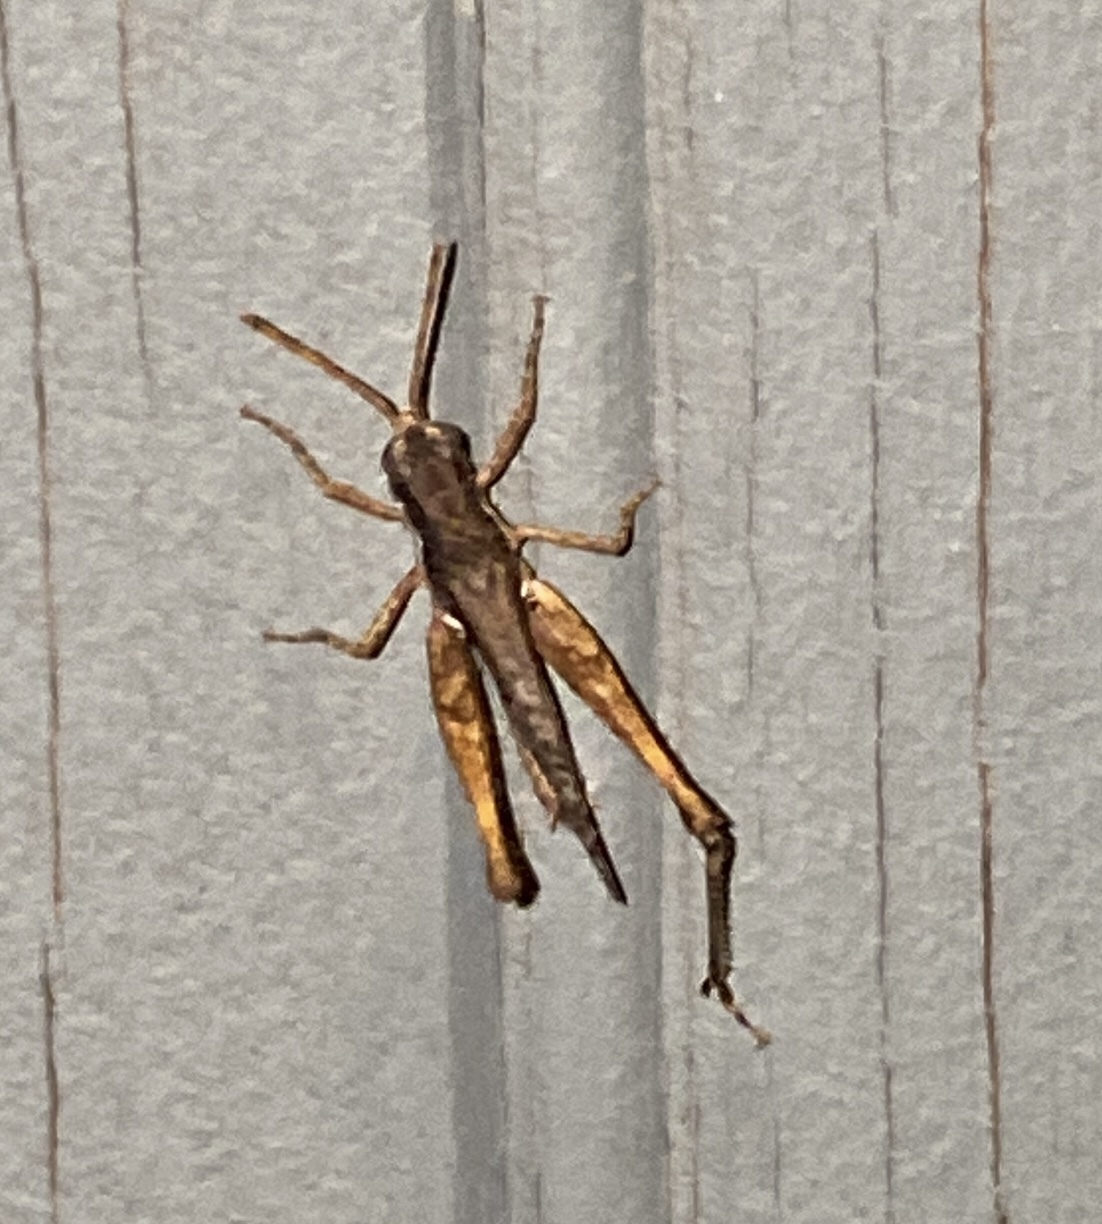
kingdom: Animalia
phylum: Arthropoda
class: Insecta
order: Orthoptera
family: Acrididae
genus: Horesidotes
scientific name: Horesidotes cinereus
